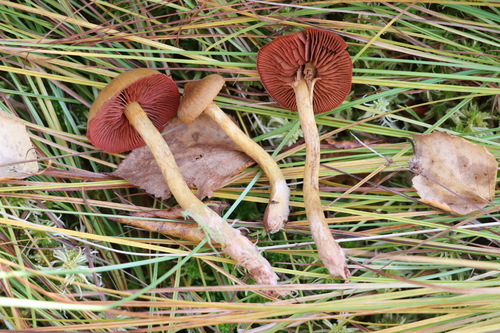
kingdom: Fungi
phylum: Basidiomycota
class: Agaricomycetes
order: Agaricales
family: Cortinariaceae
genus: Cortinarius
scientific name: Cortinarius semisanguineus
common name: Surprise webcap
